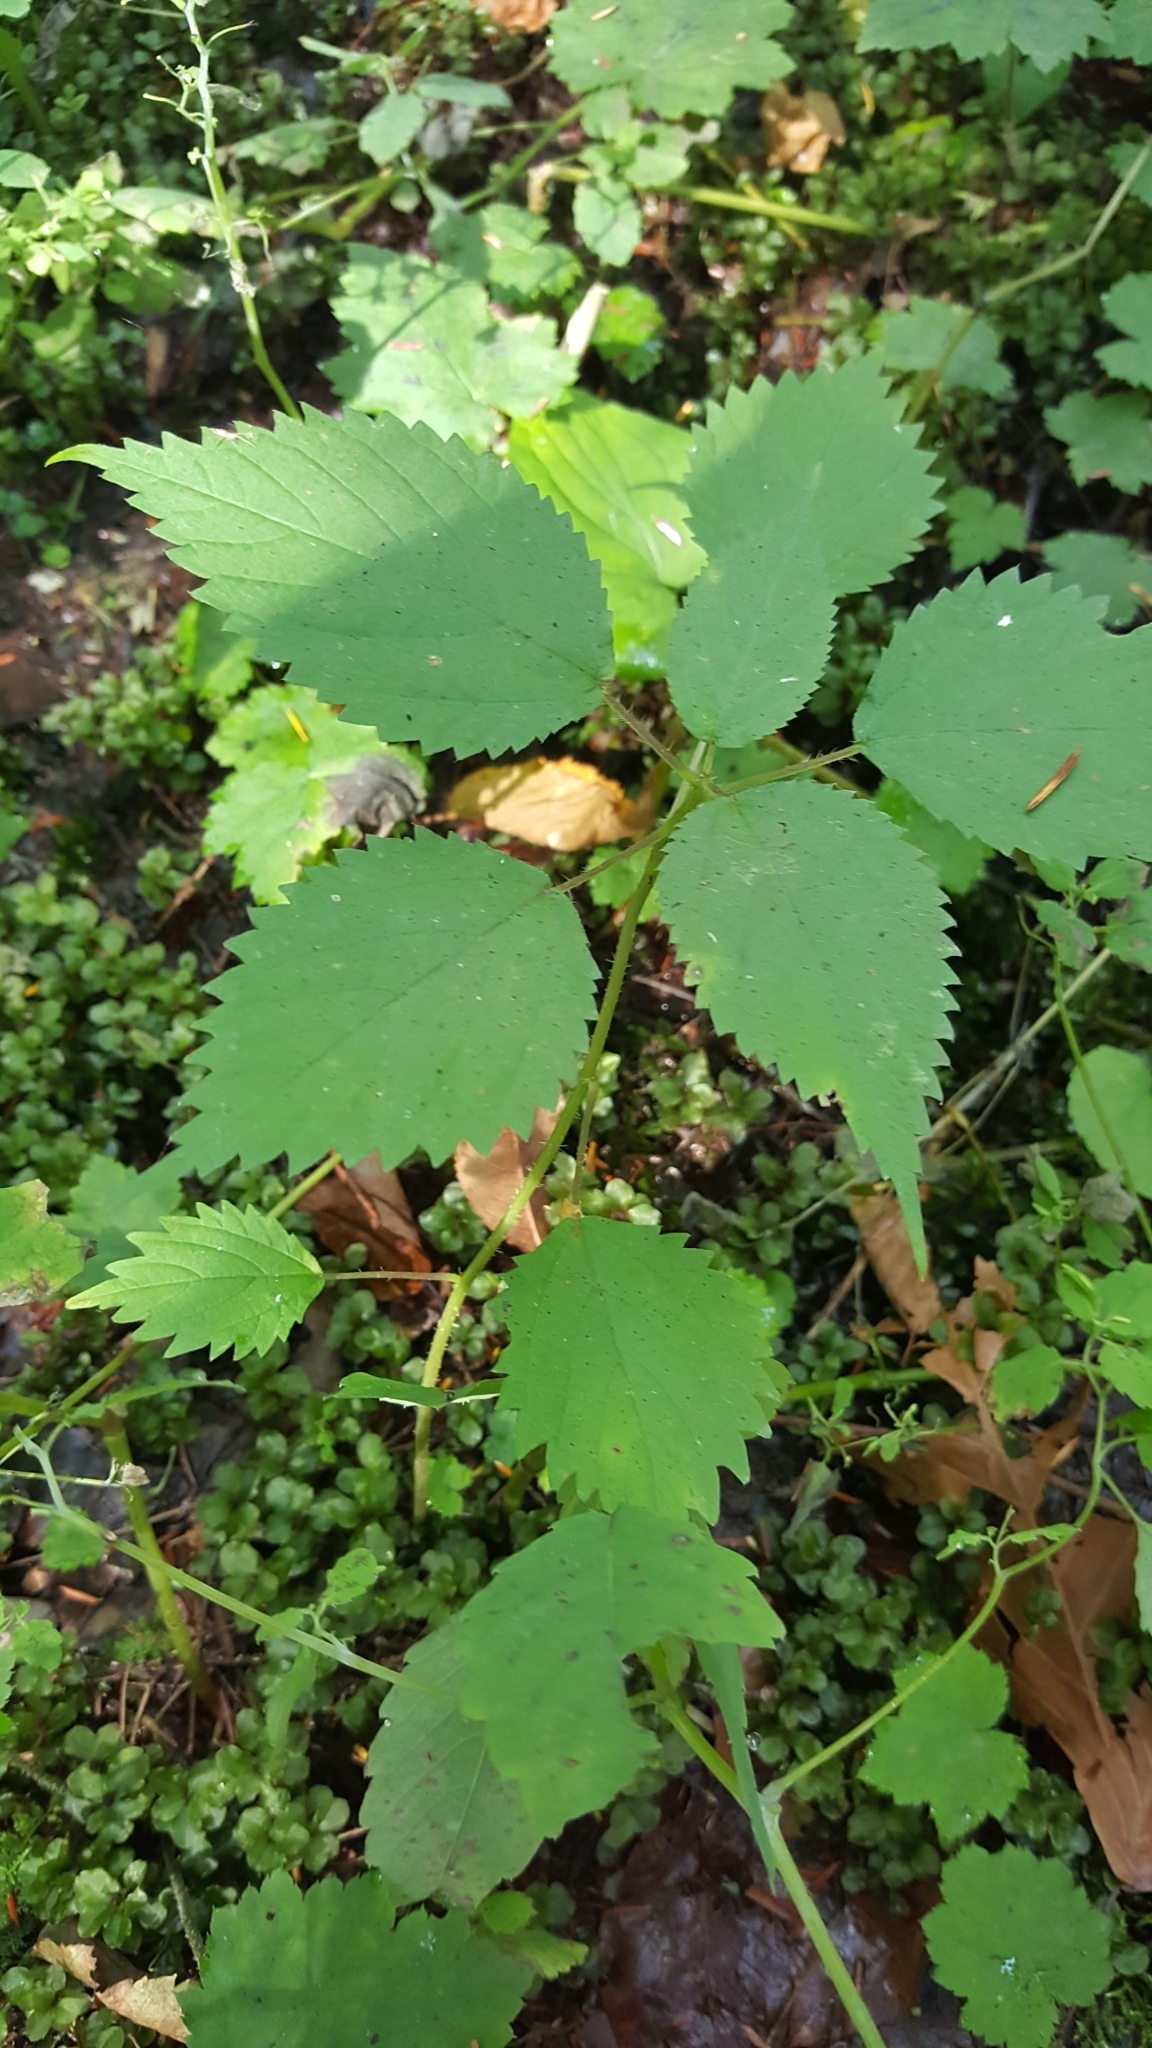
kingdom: Plantae
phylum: Tracheophyta
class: Magnoliopsida
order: Rosales
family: Urticaceae
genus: Laportea
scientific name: Laportea canadensis
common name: Canada nettle
